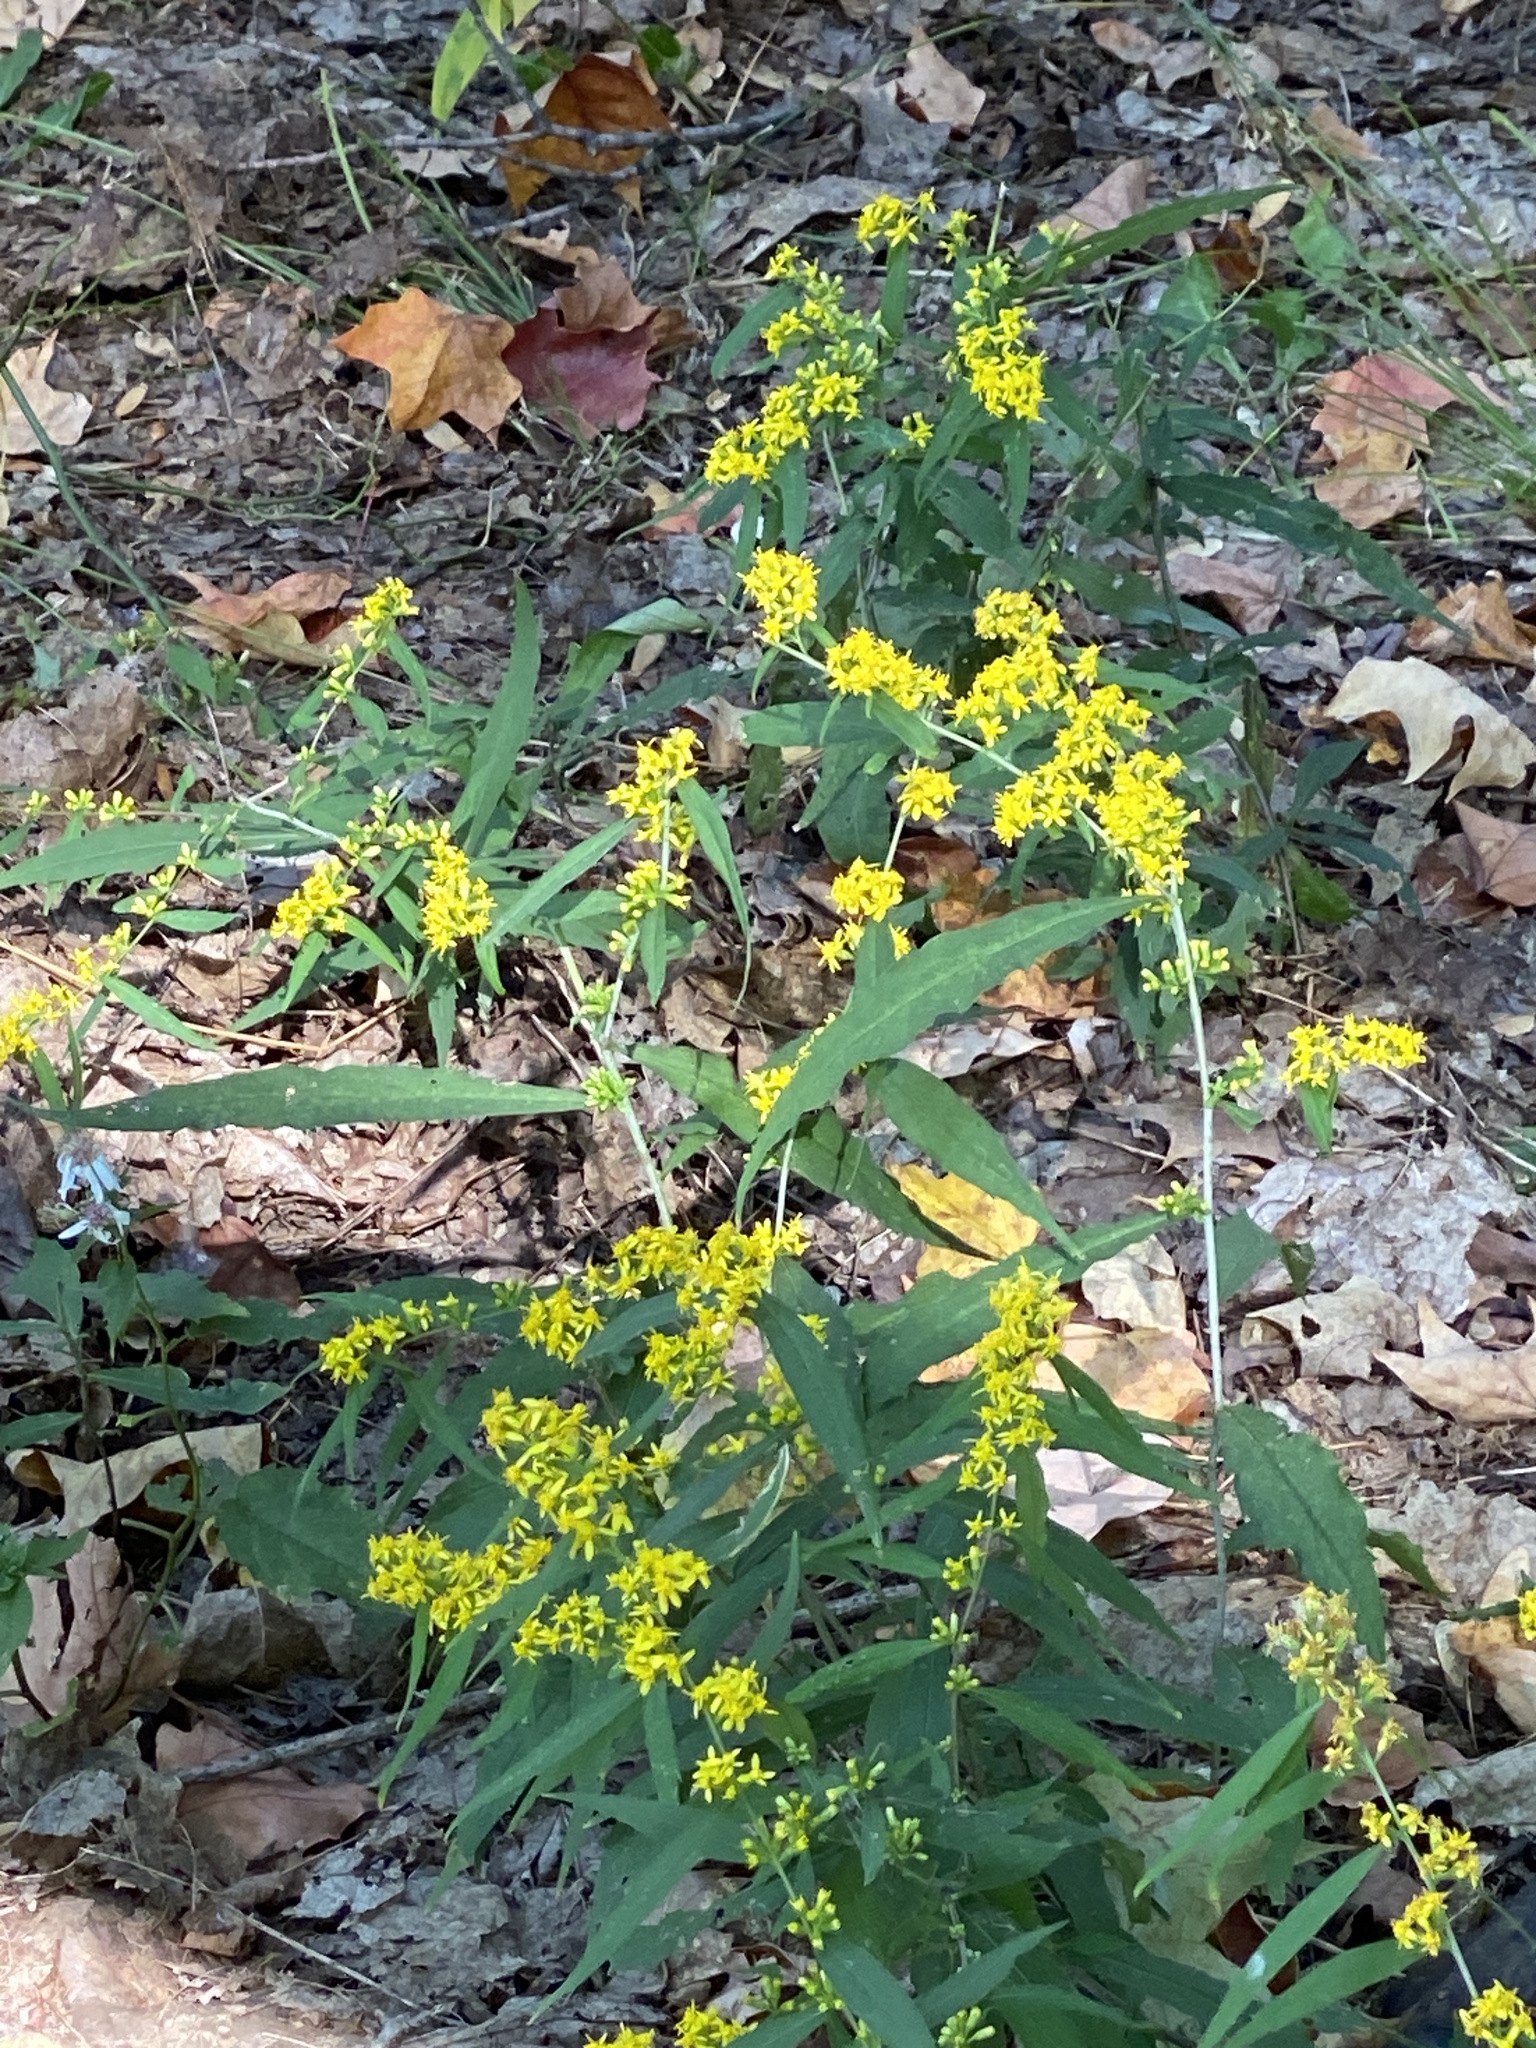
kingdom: Plantae
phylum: Tracheophyta
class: Magnoliopsida
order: Asterales
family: Asteraceae
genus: Solidago
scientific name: Solidago caesia
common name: Woodland goldenrod
